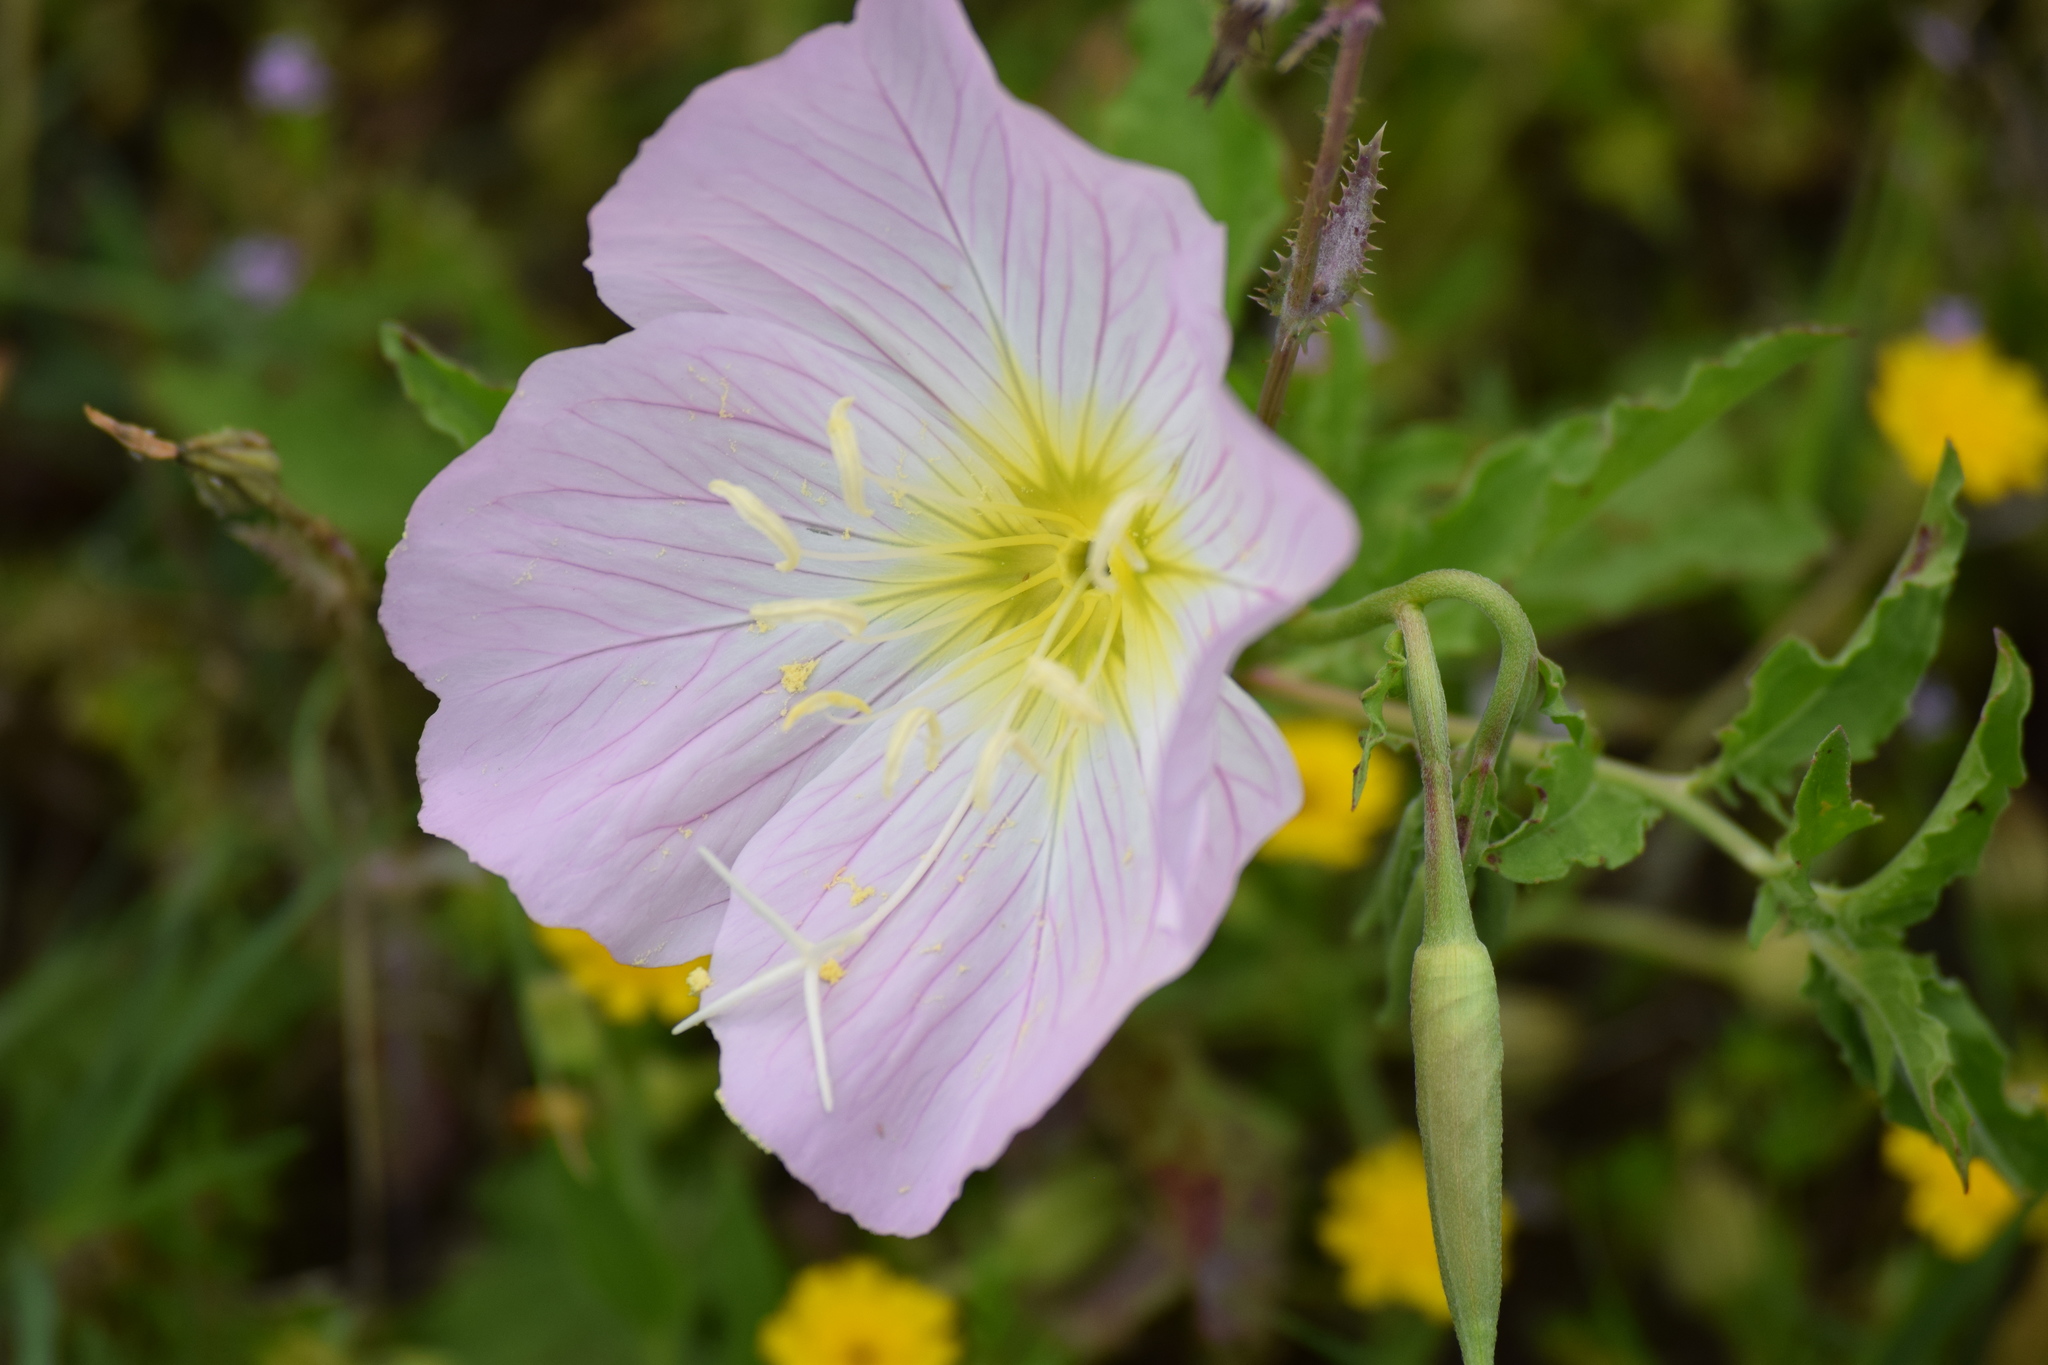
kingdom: Plantae
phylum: Tracheophyta
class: Magnoliopsida
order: Myrtales
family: Onagraceae
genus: Oenothera
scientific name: Oenothera speciosa
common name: White evening-primrose
